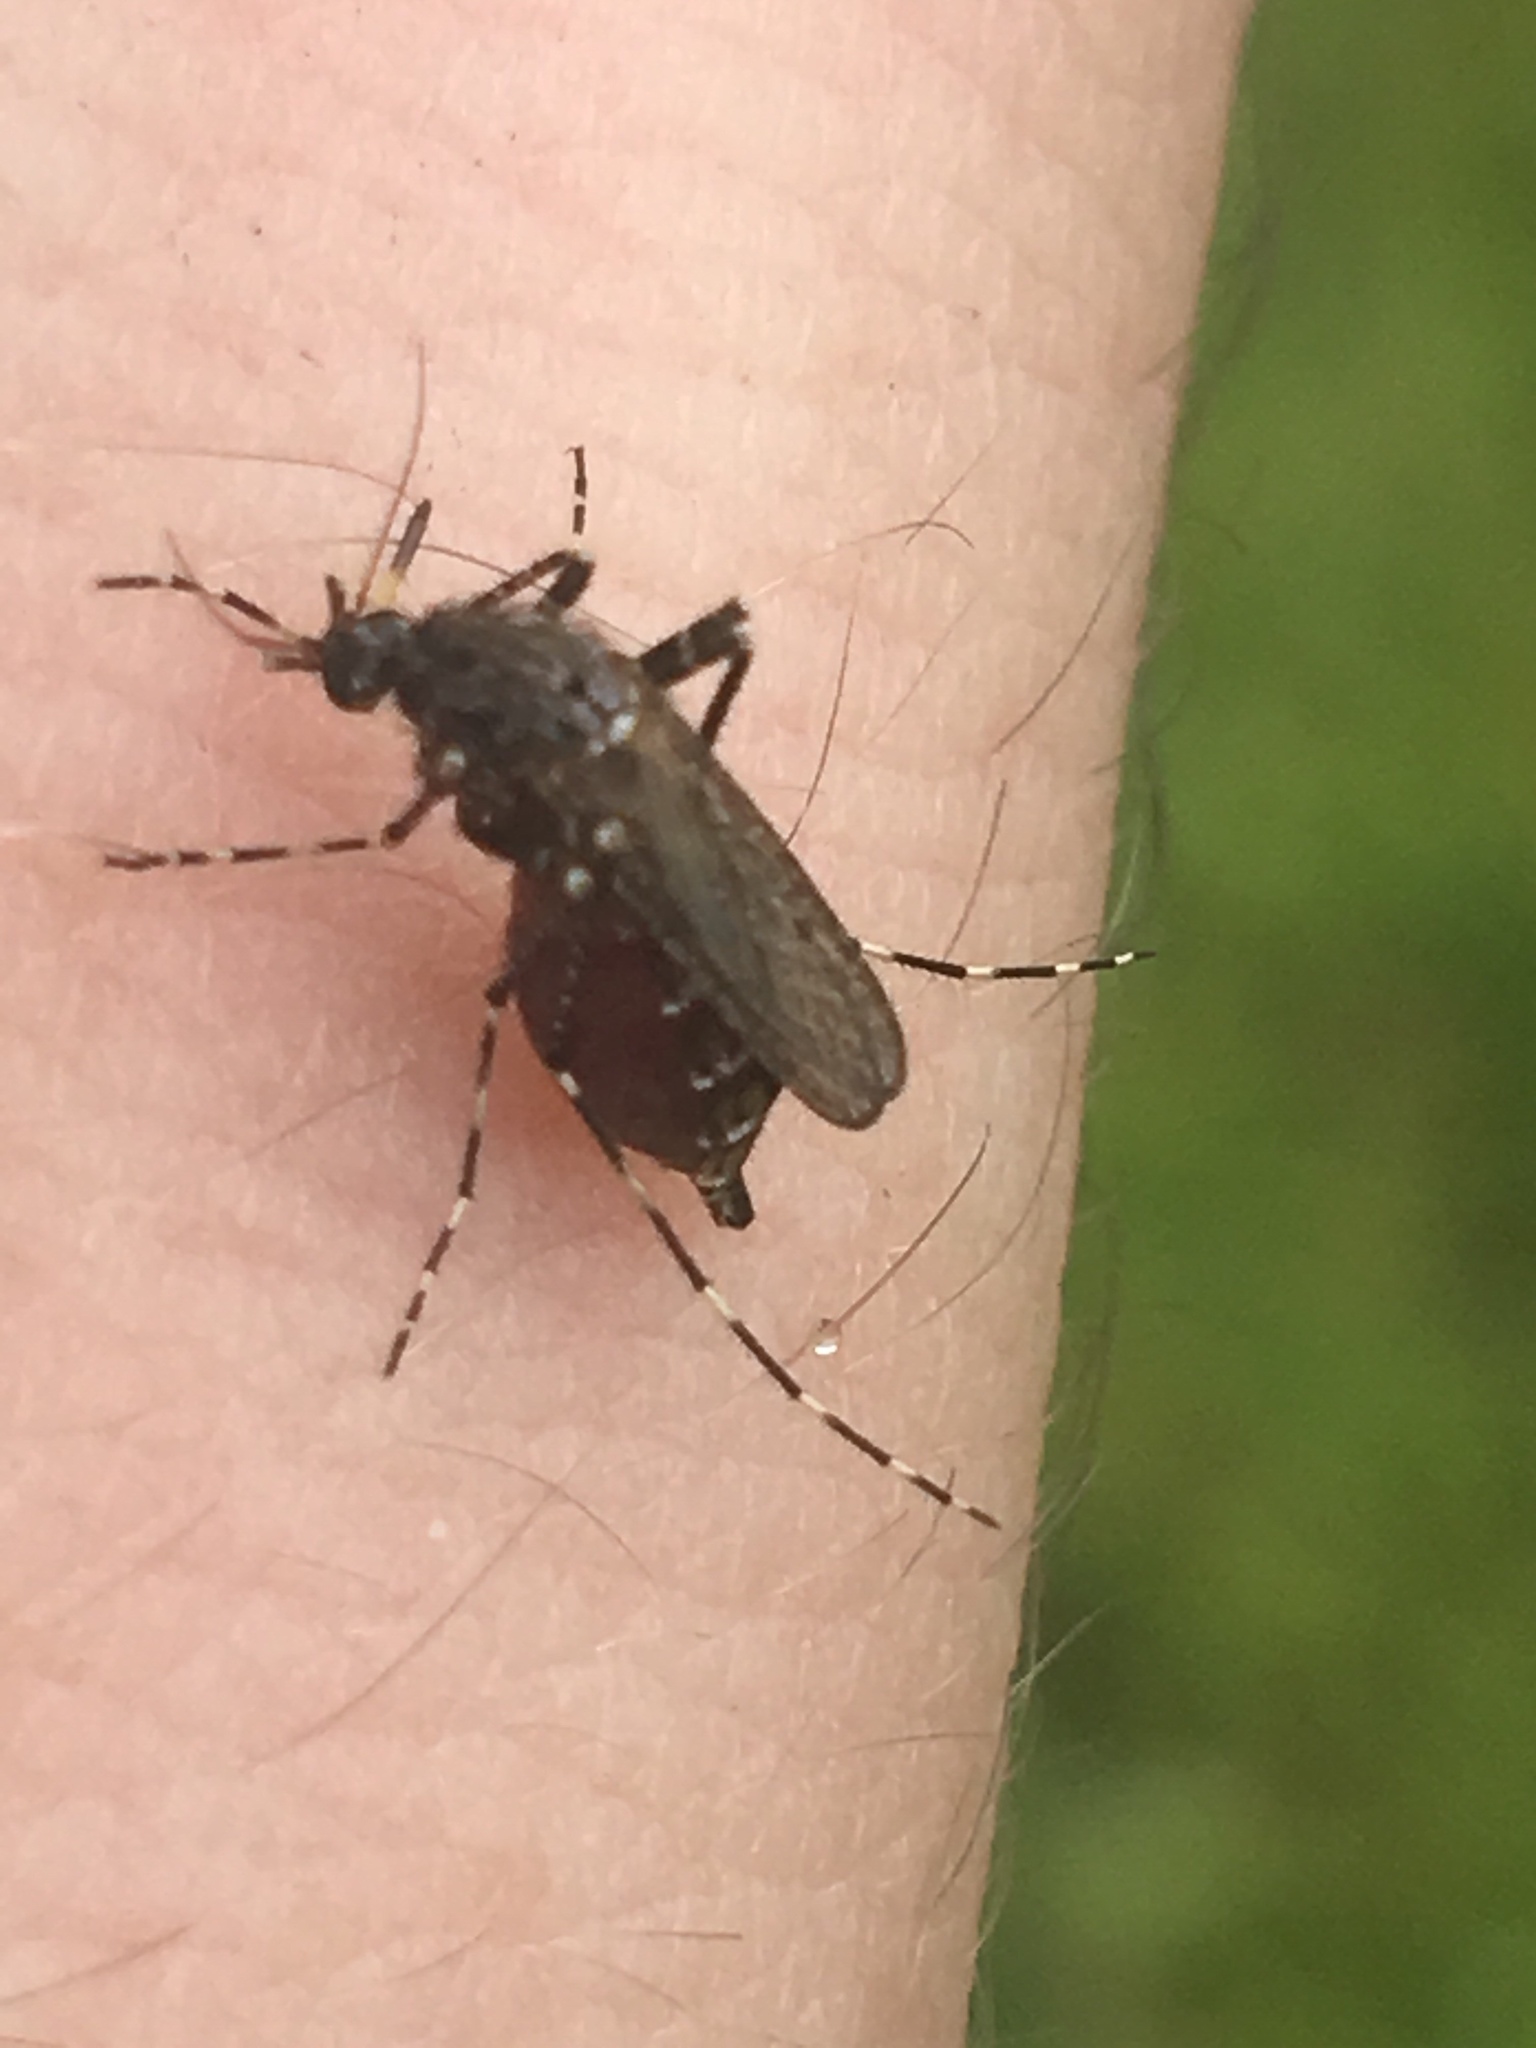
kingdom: Animalia
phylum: Arthropoda
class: Insecta
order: Diptera
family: Culicidae
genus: Psorophora
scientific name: Psorophora columbiae
